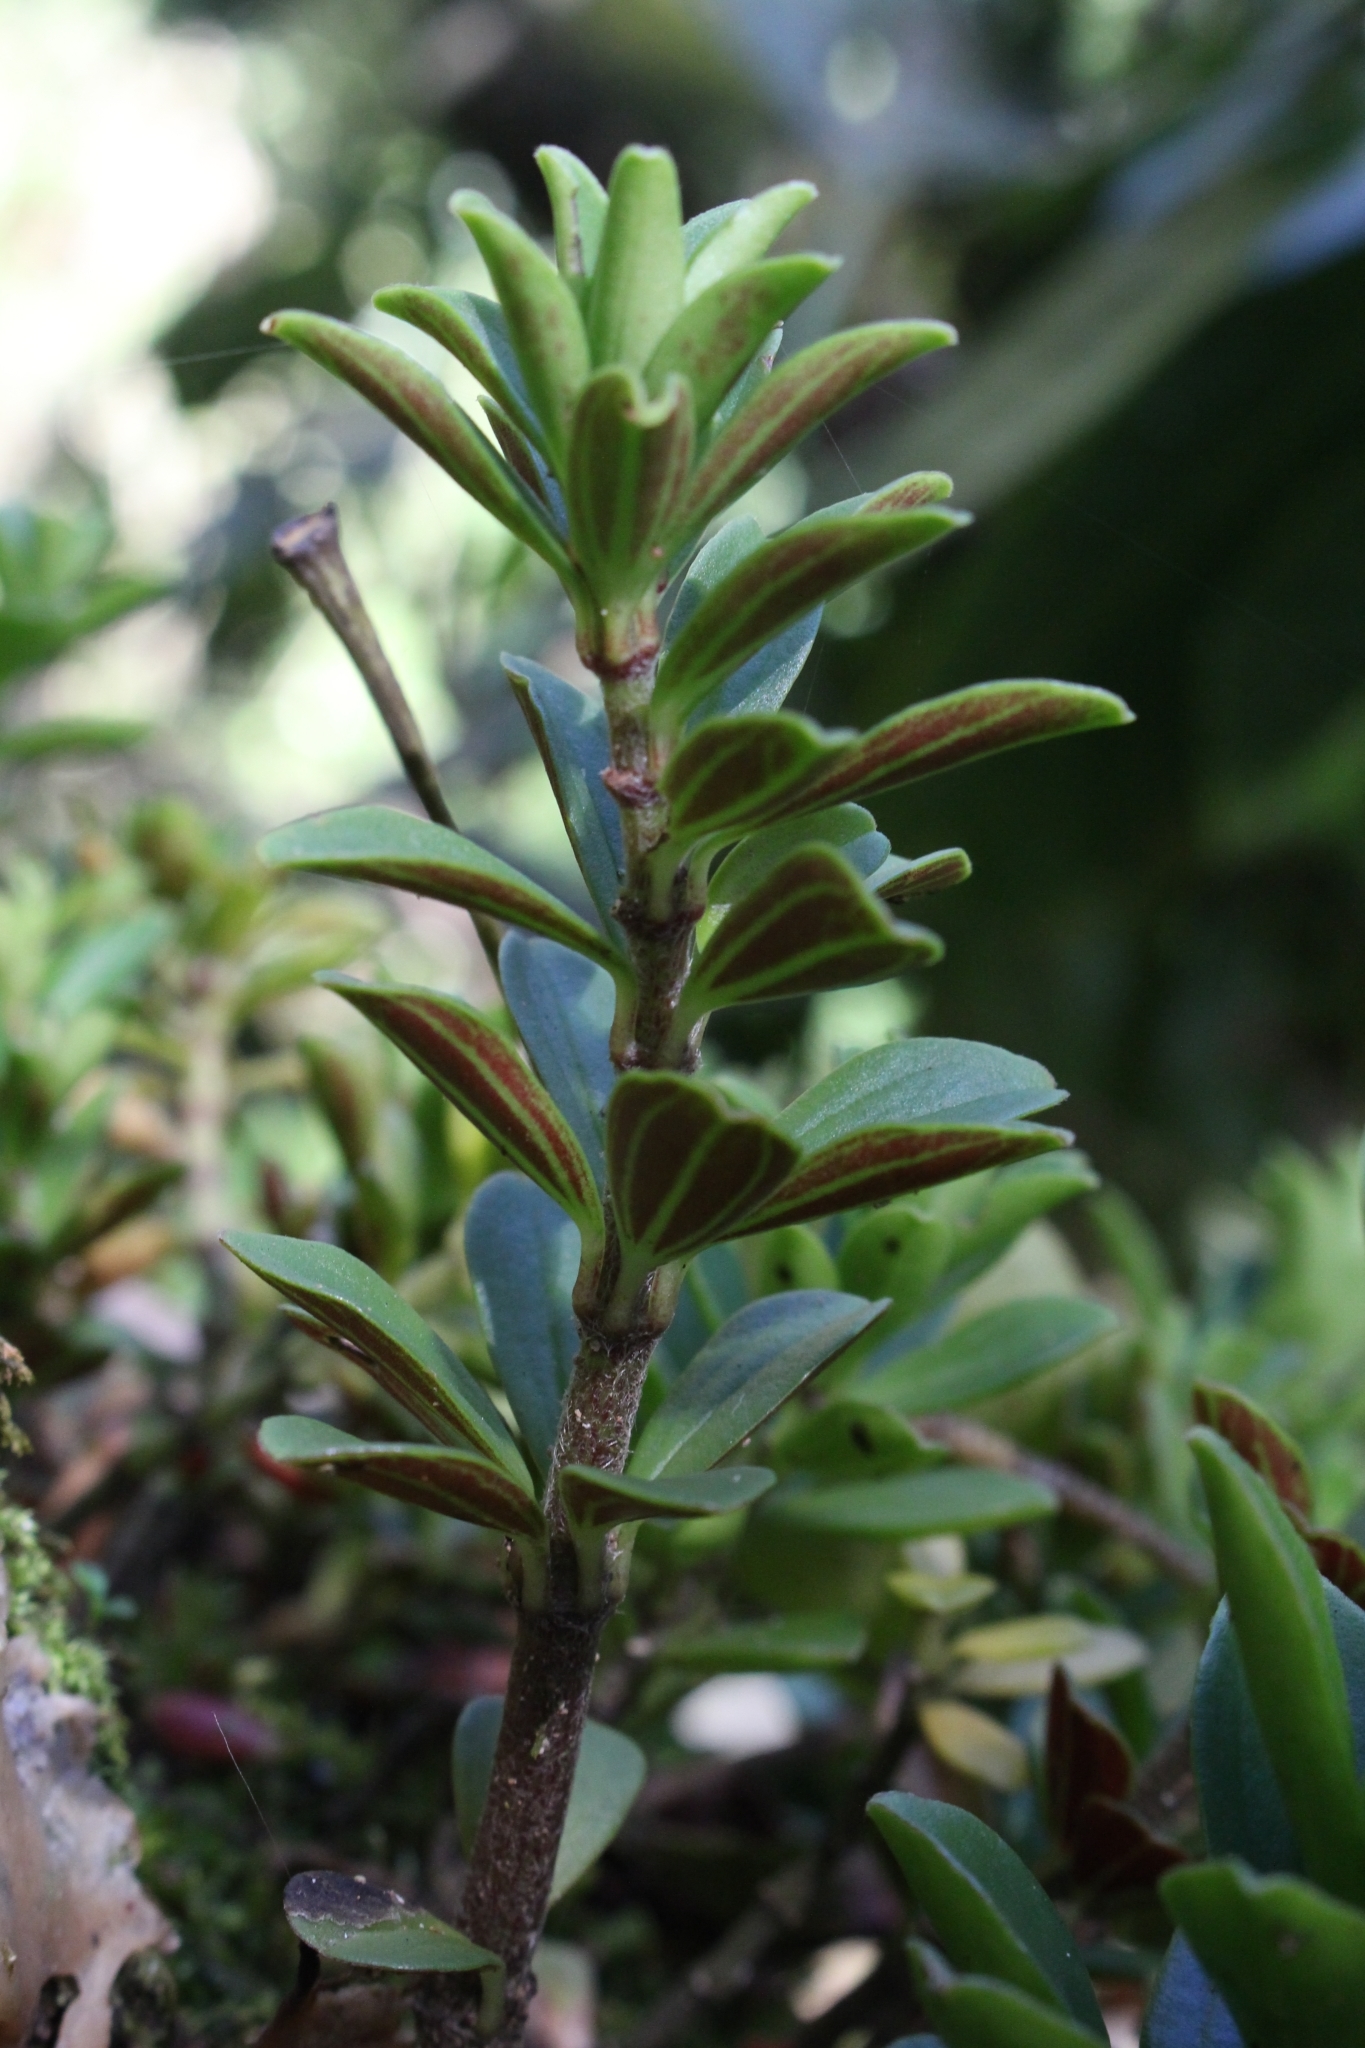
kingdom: Plantae
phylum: Tracheophyta
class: Magnoliopsida
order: Piperales
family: Piperaceae
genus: Peperomia
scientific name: Peperomia olivacea
